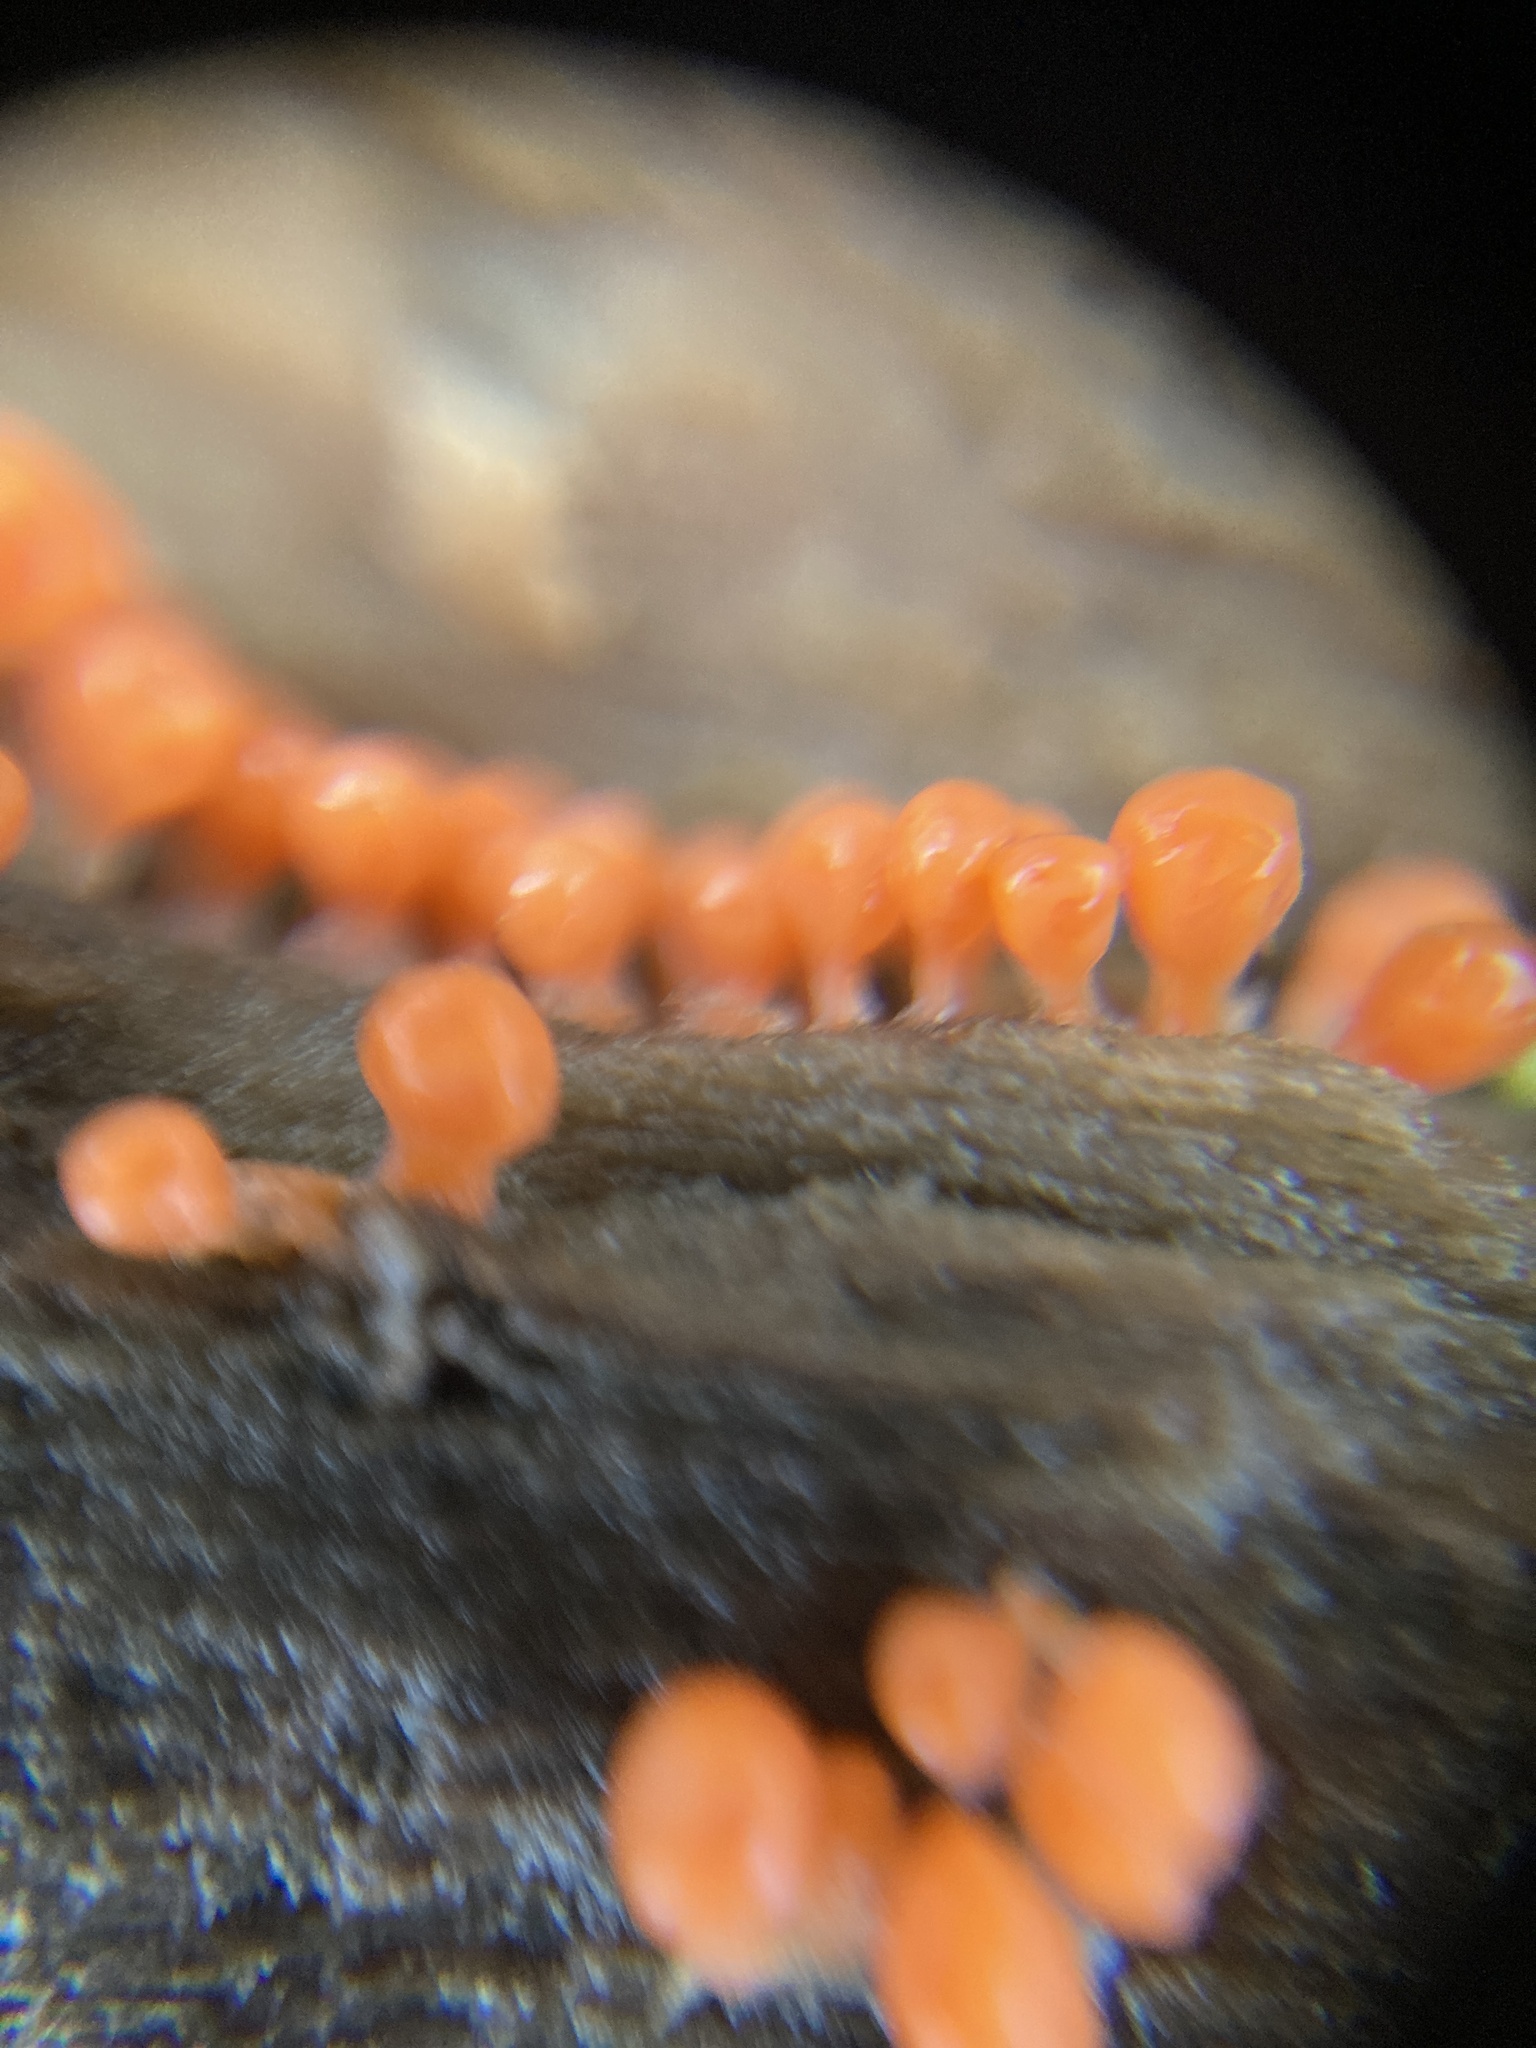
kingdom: Protozoa
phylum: Mycetozoa
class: Myxomycetes
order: Trichiales
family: Arcyriaceae
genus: Hemitrichia
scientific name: Hemitrichia decipiens
